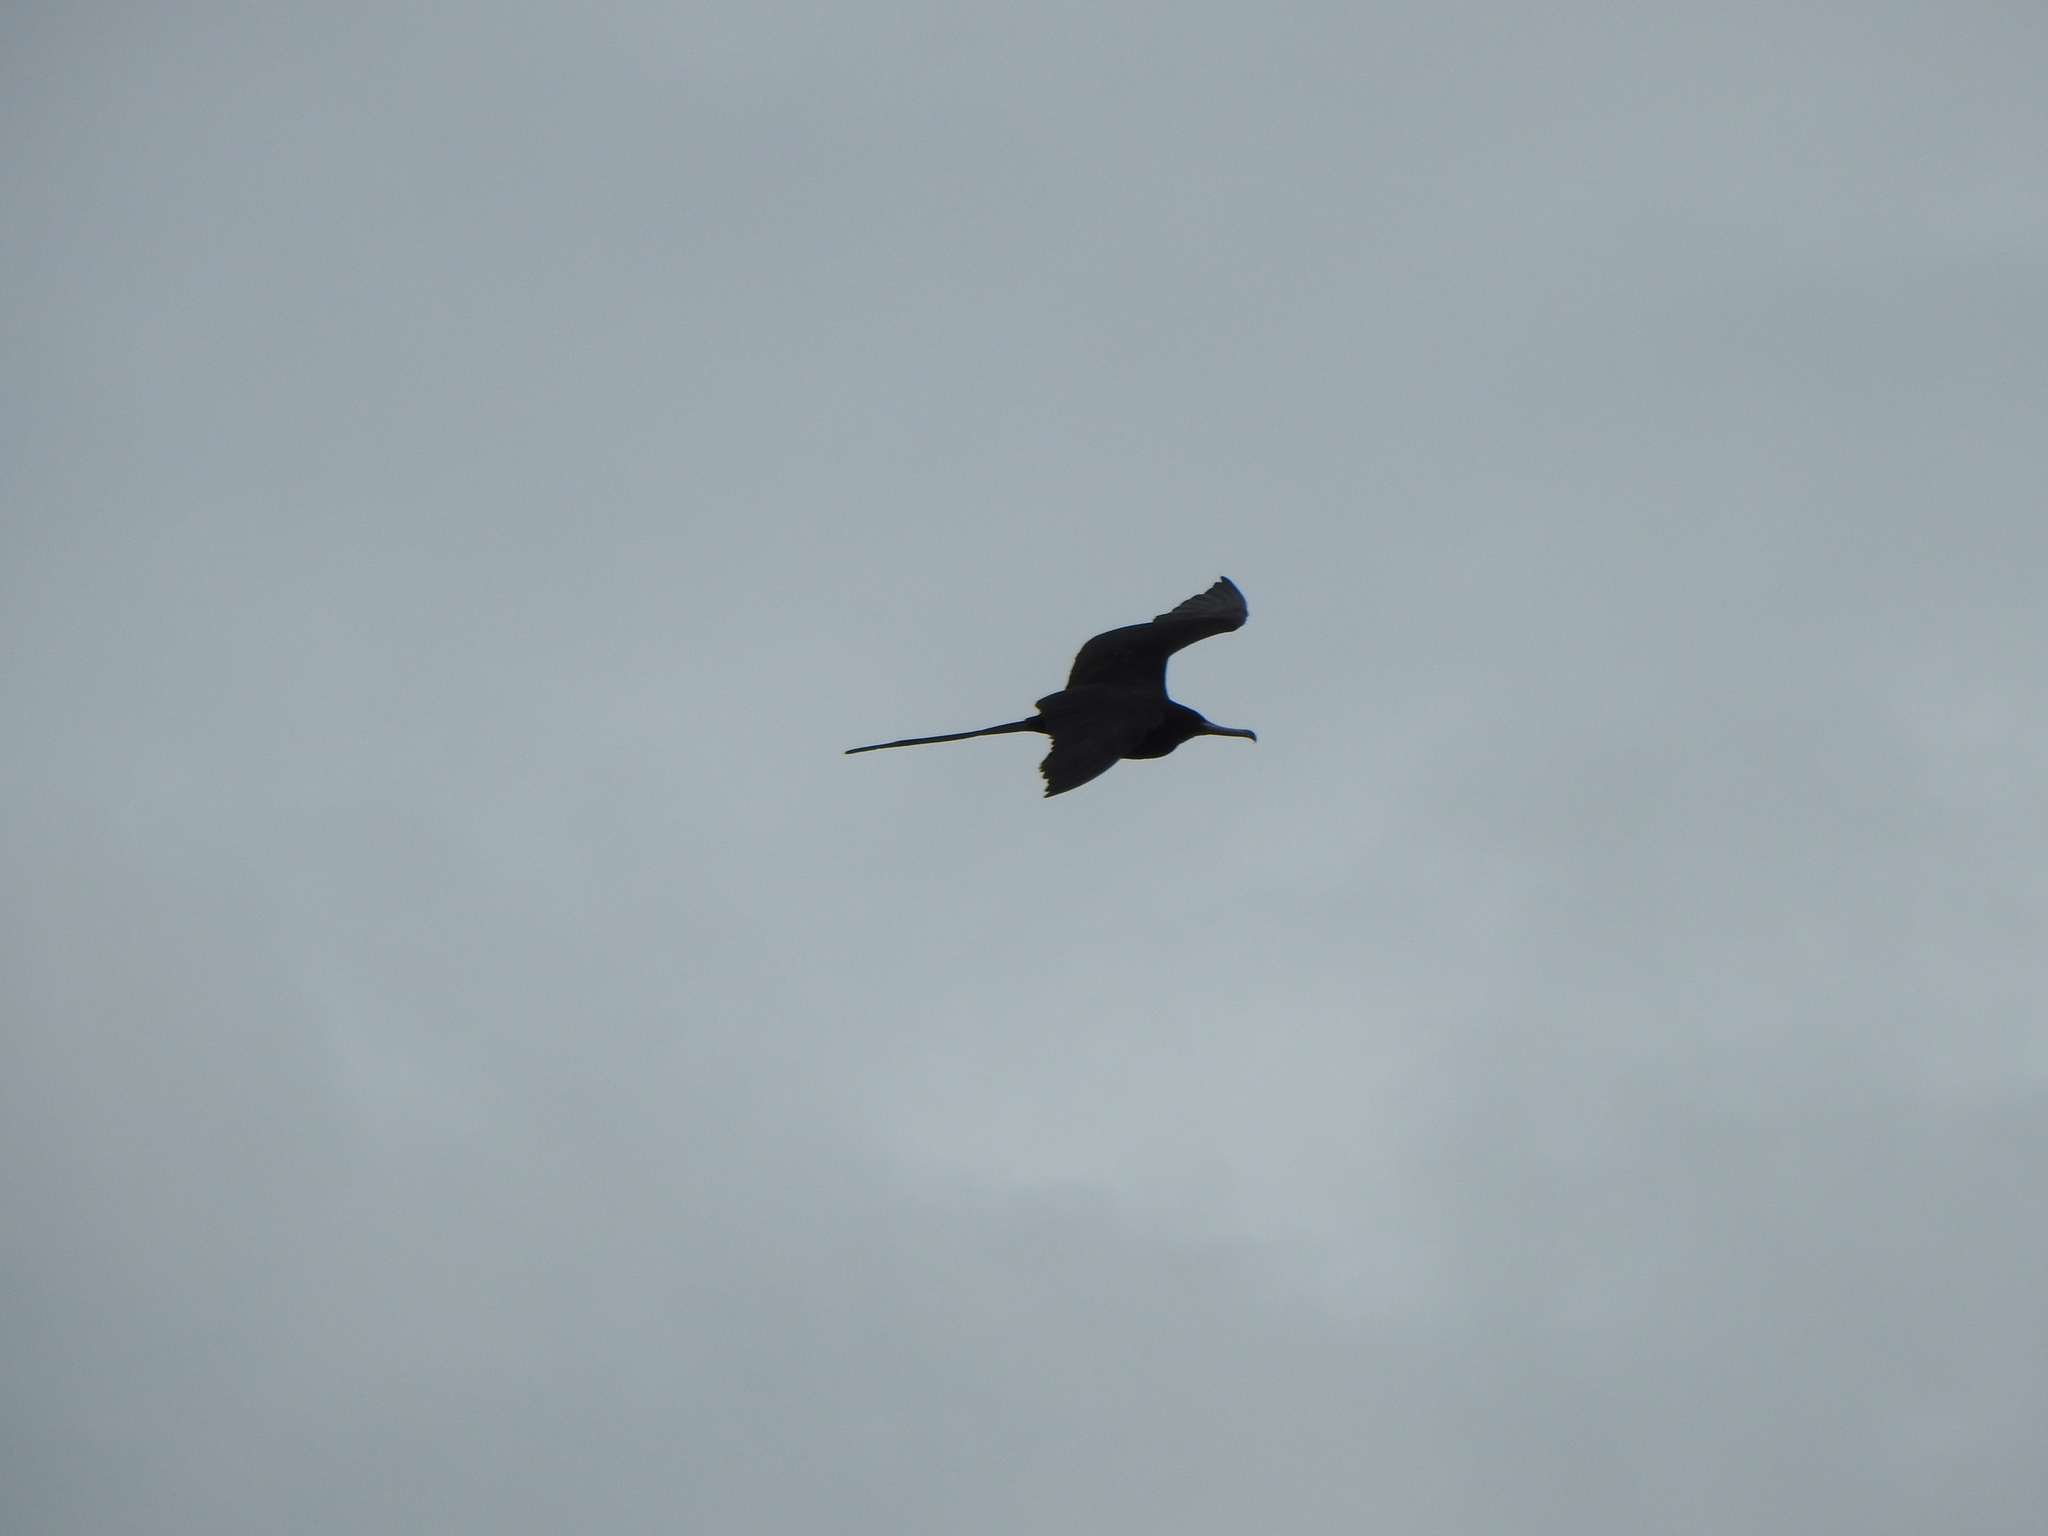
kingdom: Animalia
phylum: Chordata
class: Aves
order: Suliformes
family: Fregatidae
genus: Fregata
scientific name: Fregata magnificens
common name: Magnificent frigatebird
